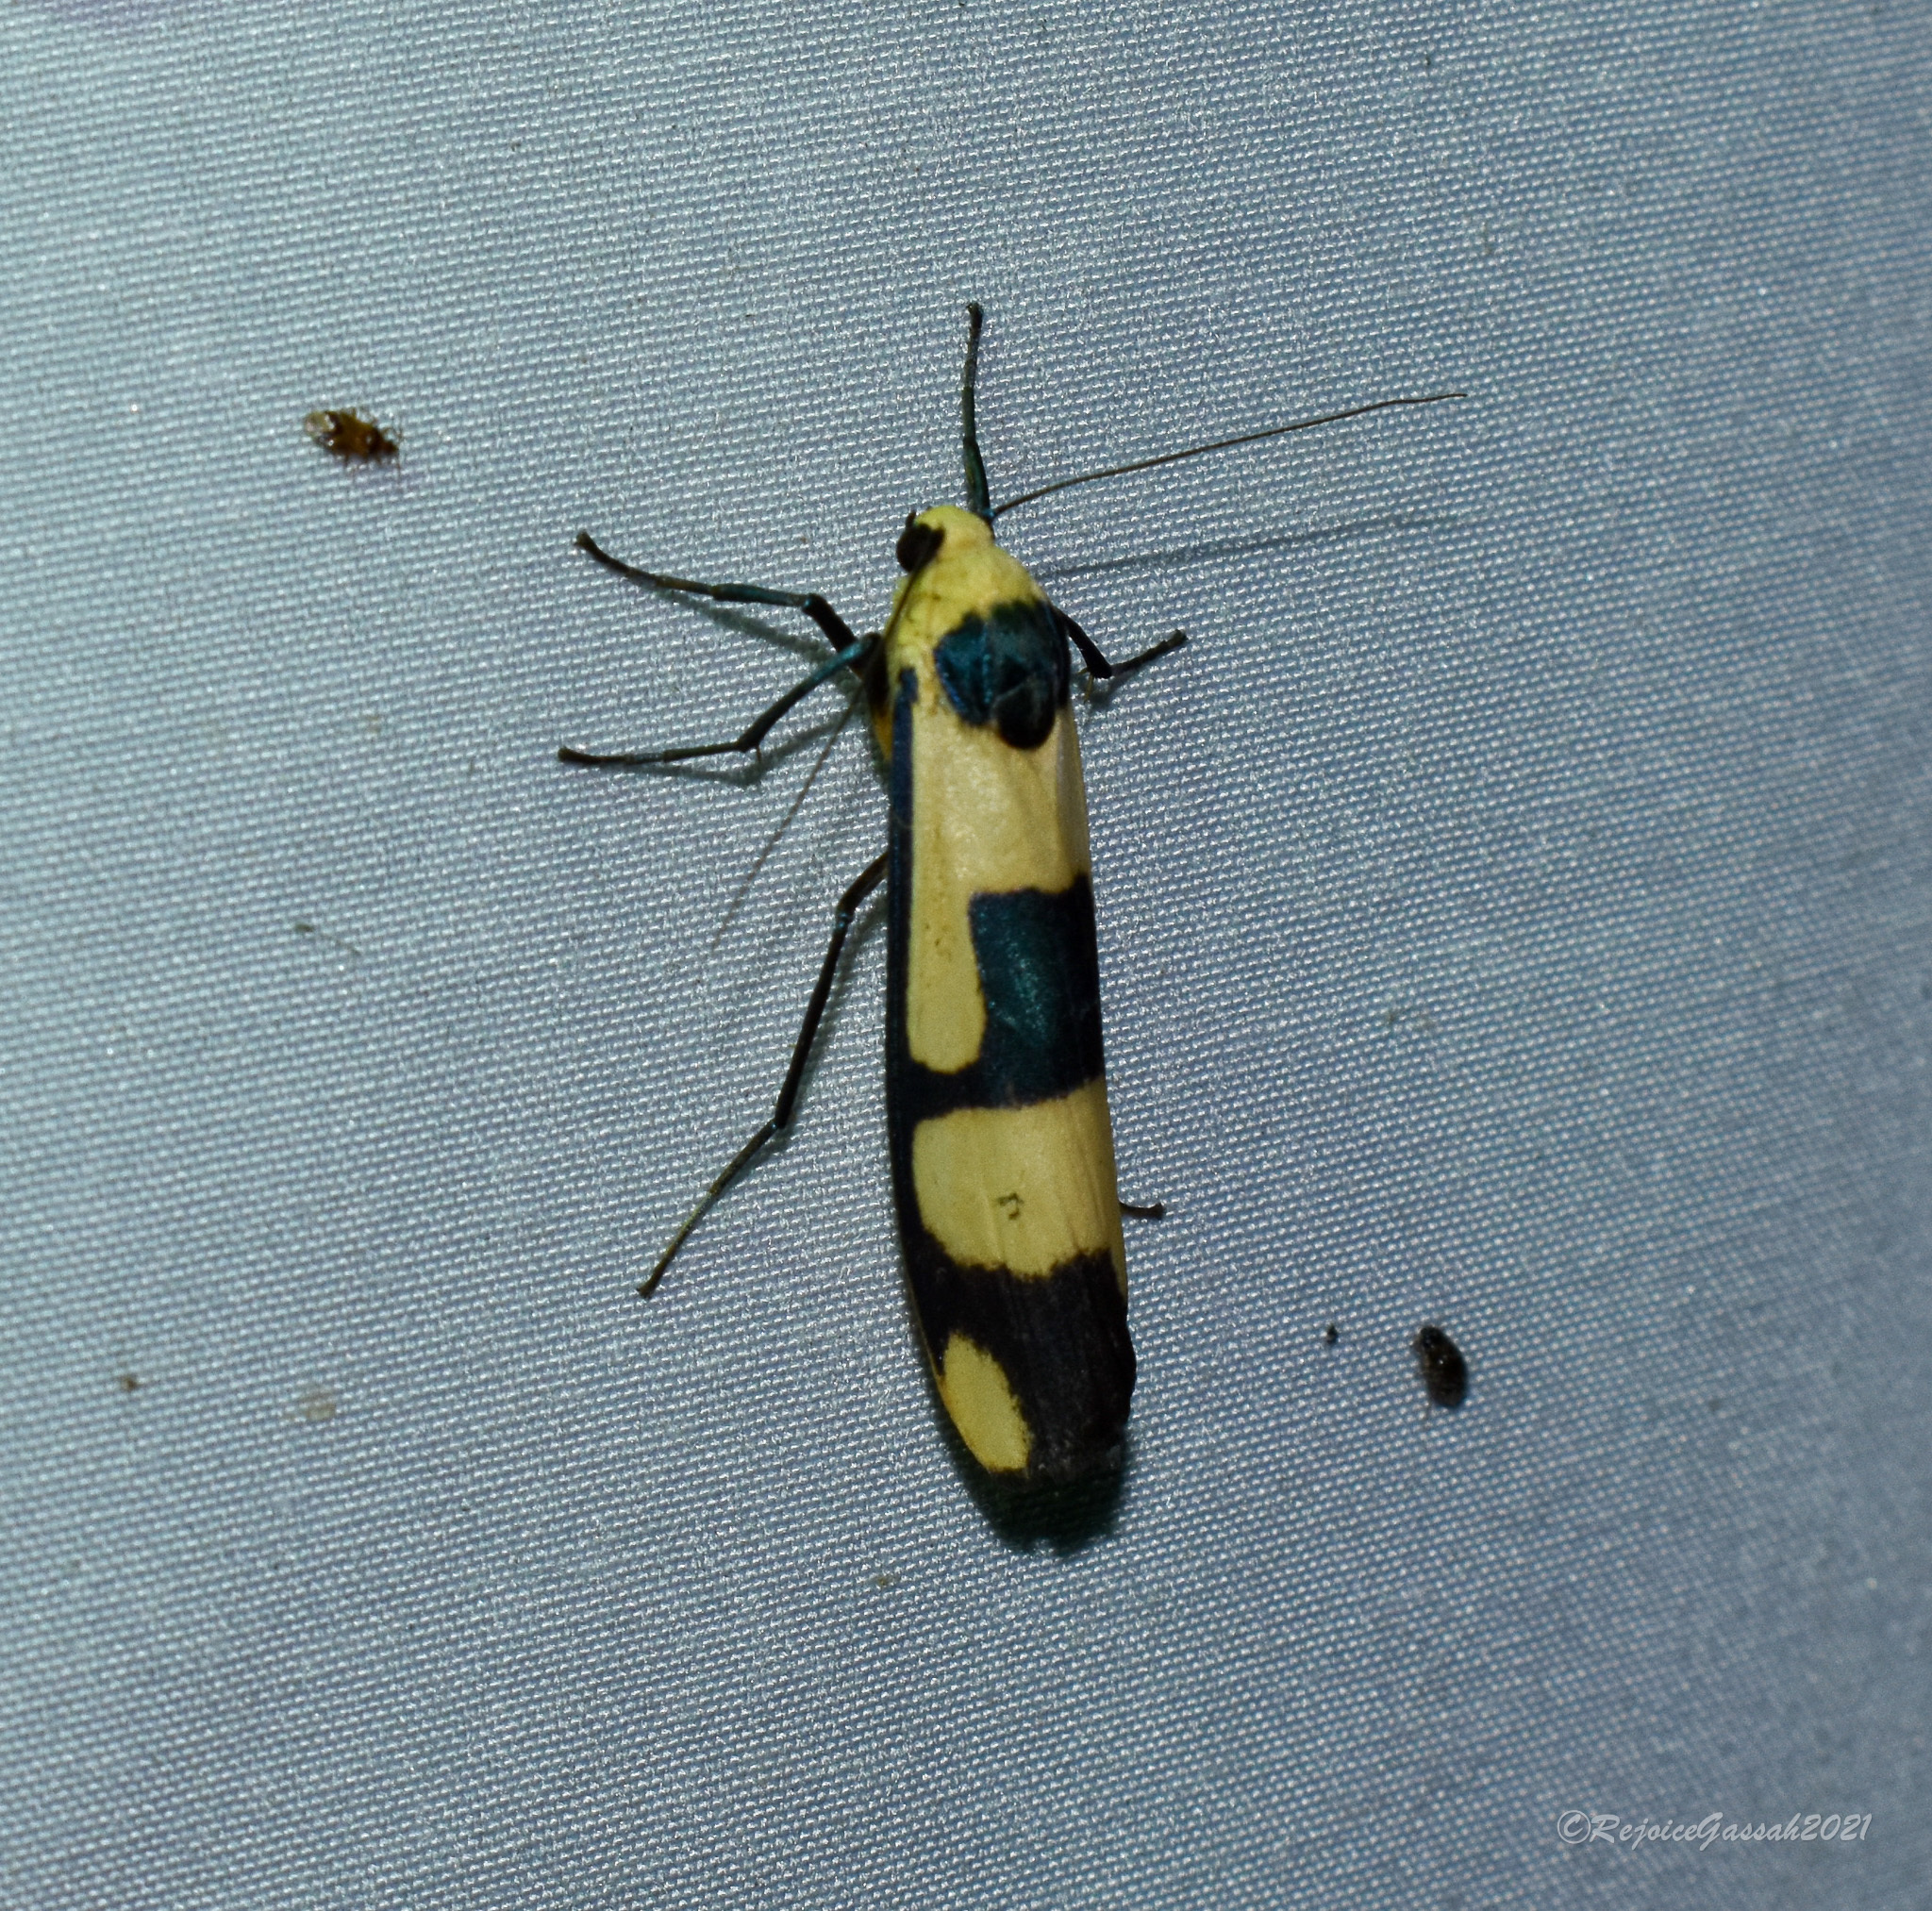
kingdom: Animalia
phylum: Arthropoda
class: Insecta
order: Lepidoptera
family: Erebidae
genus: Oeonistis
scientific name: Oeonistis altica
